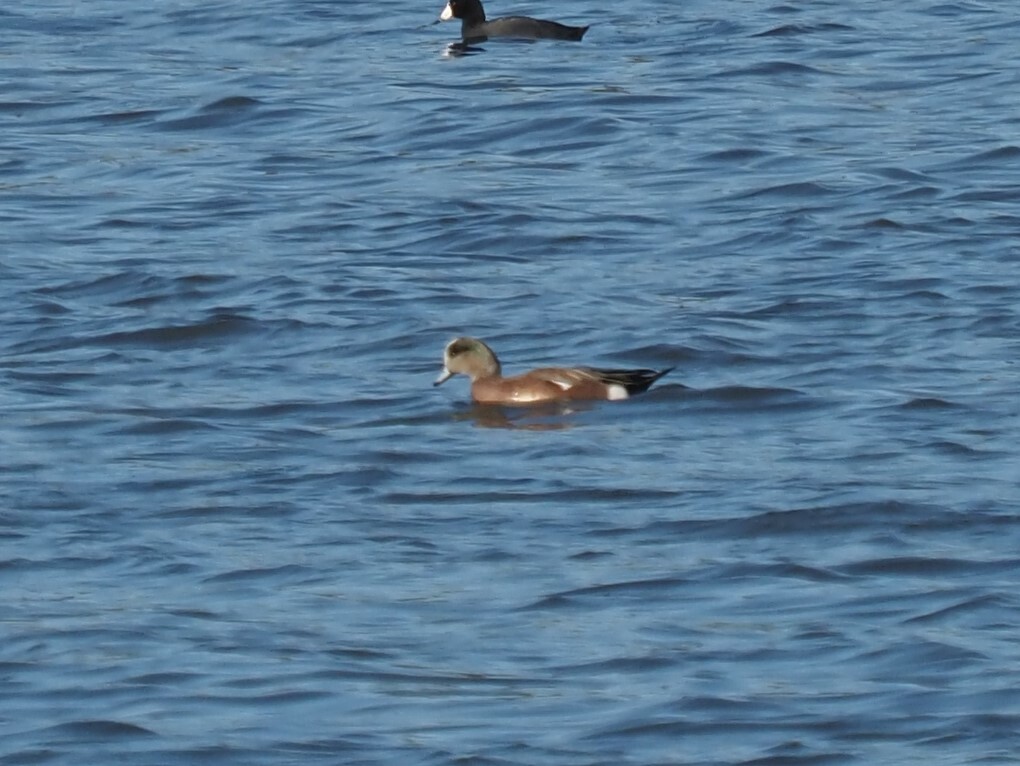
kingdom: Animalia
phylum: Chordata
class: Aves
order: Anseriformes
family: Anatidae
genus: Mareca
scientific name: Mareca americana
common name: American wigeon
